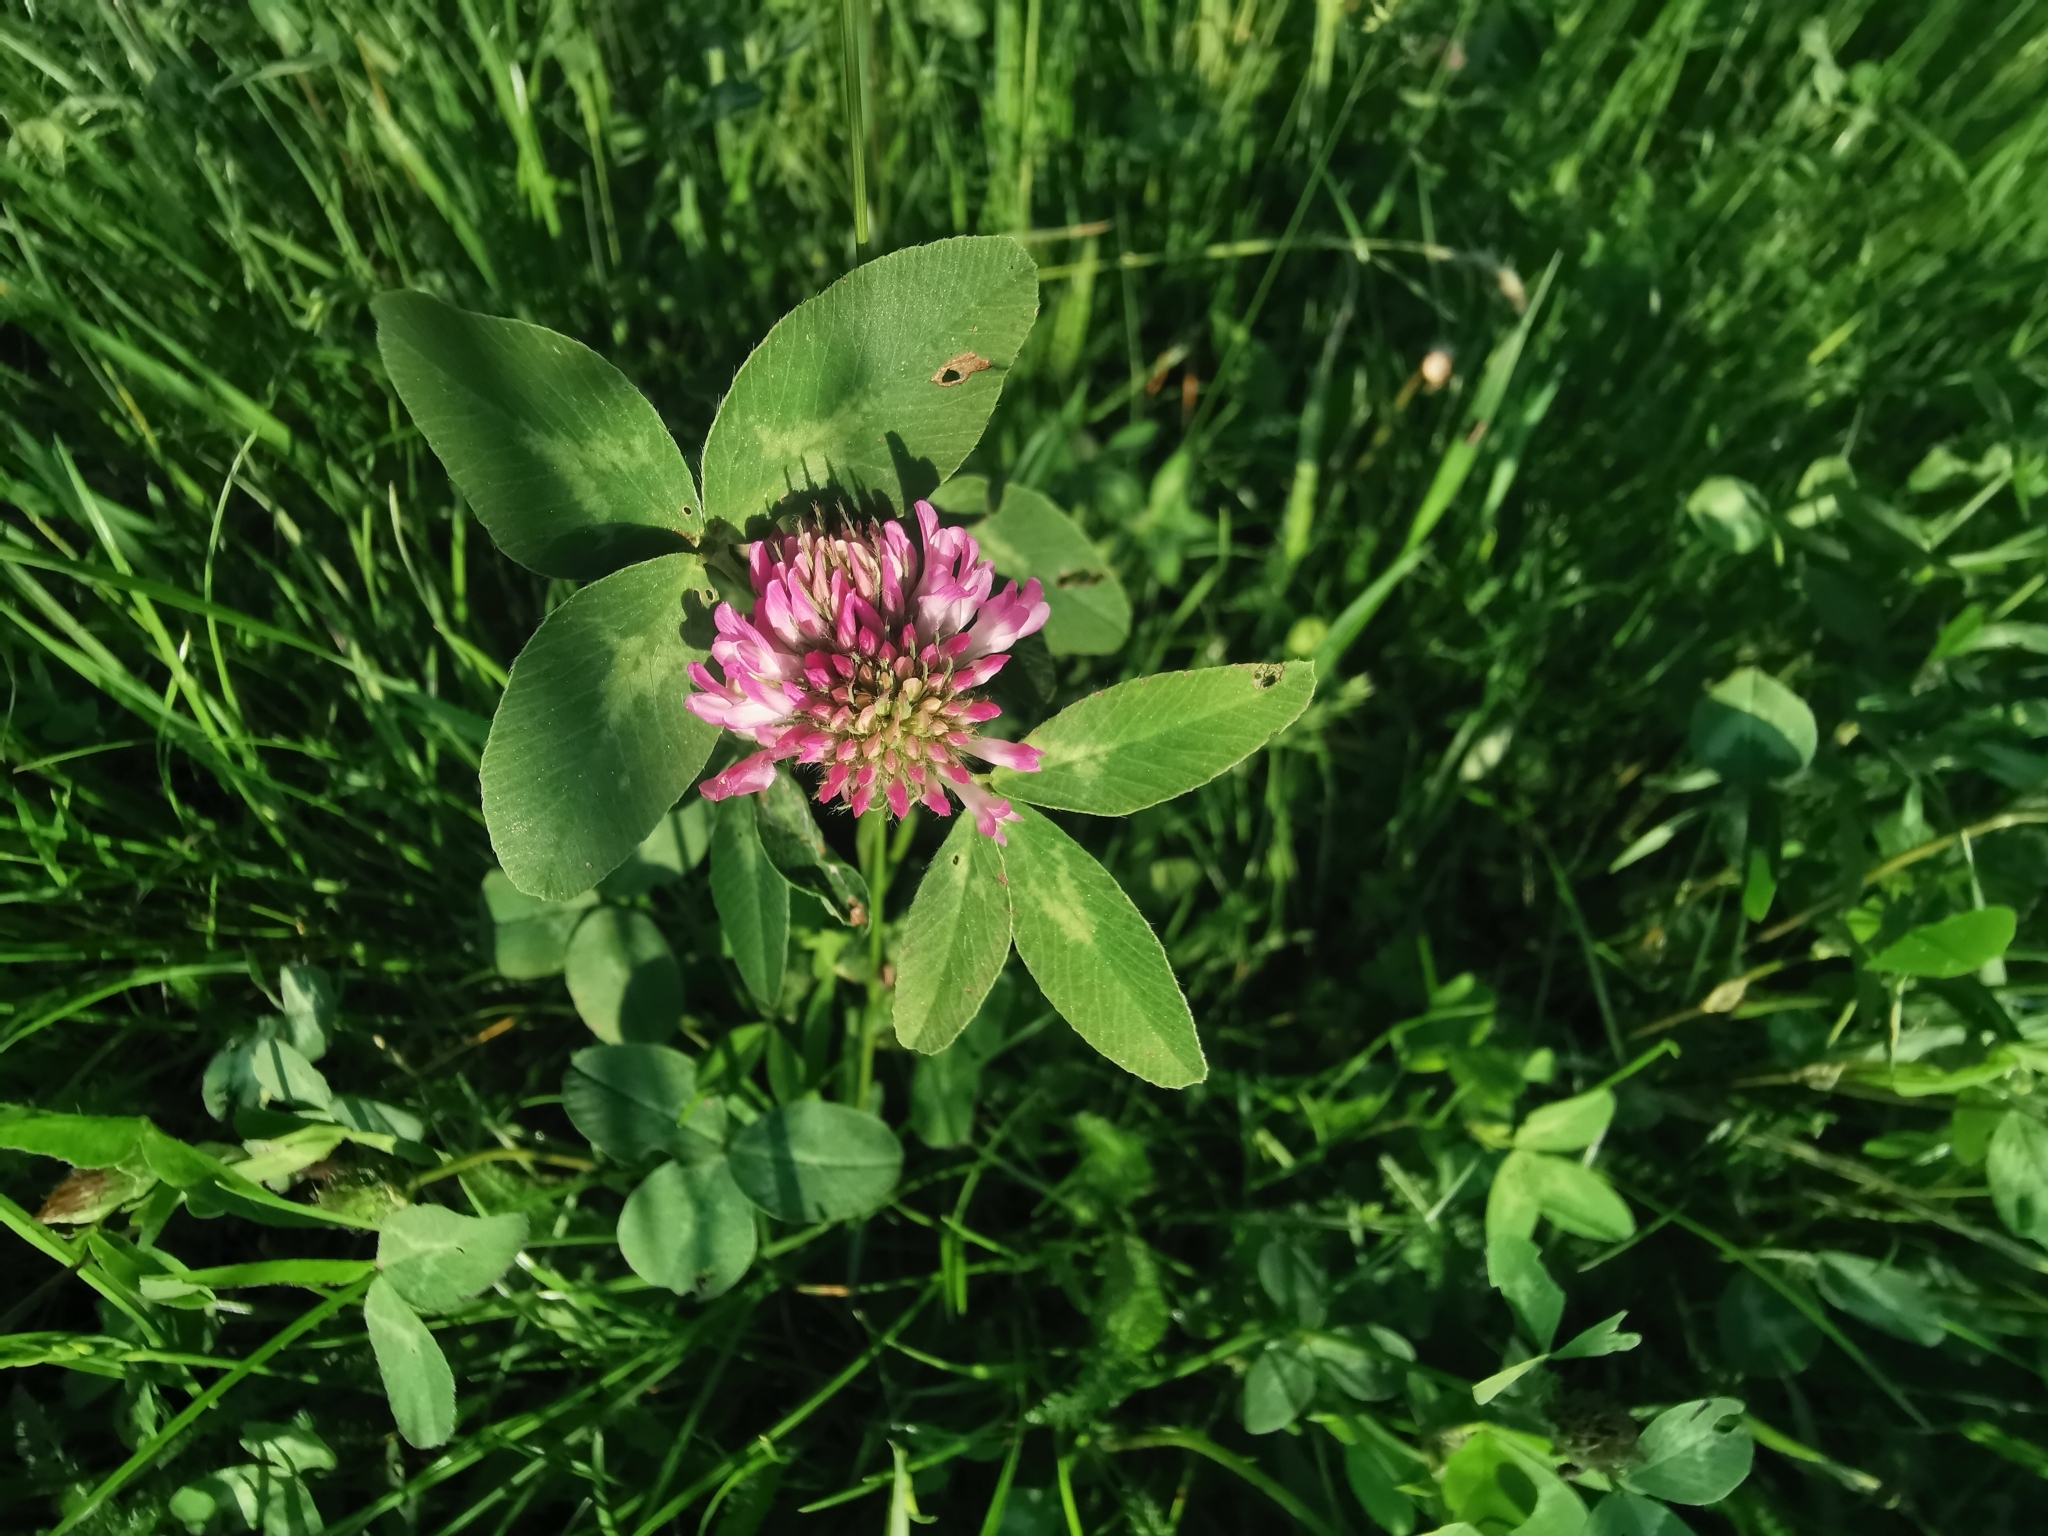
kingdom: Plantae
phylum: Tracheophyta
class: Magnoliopsida
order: Fabales
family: Fabaceae
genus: Trifolium
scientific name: Trifolium pratense
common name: Red clover
